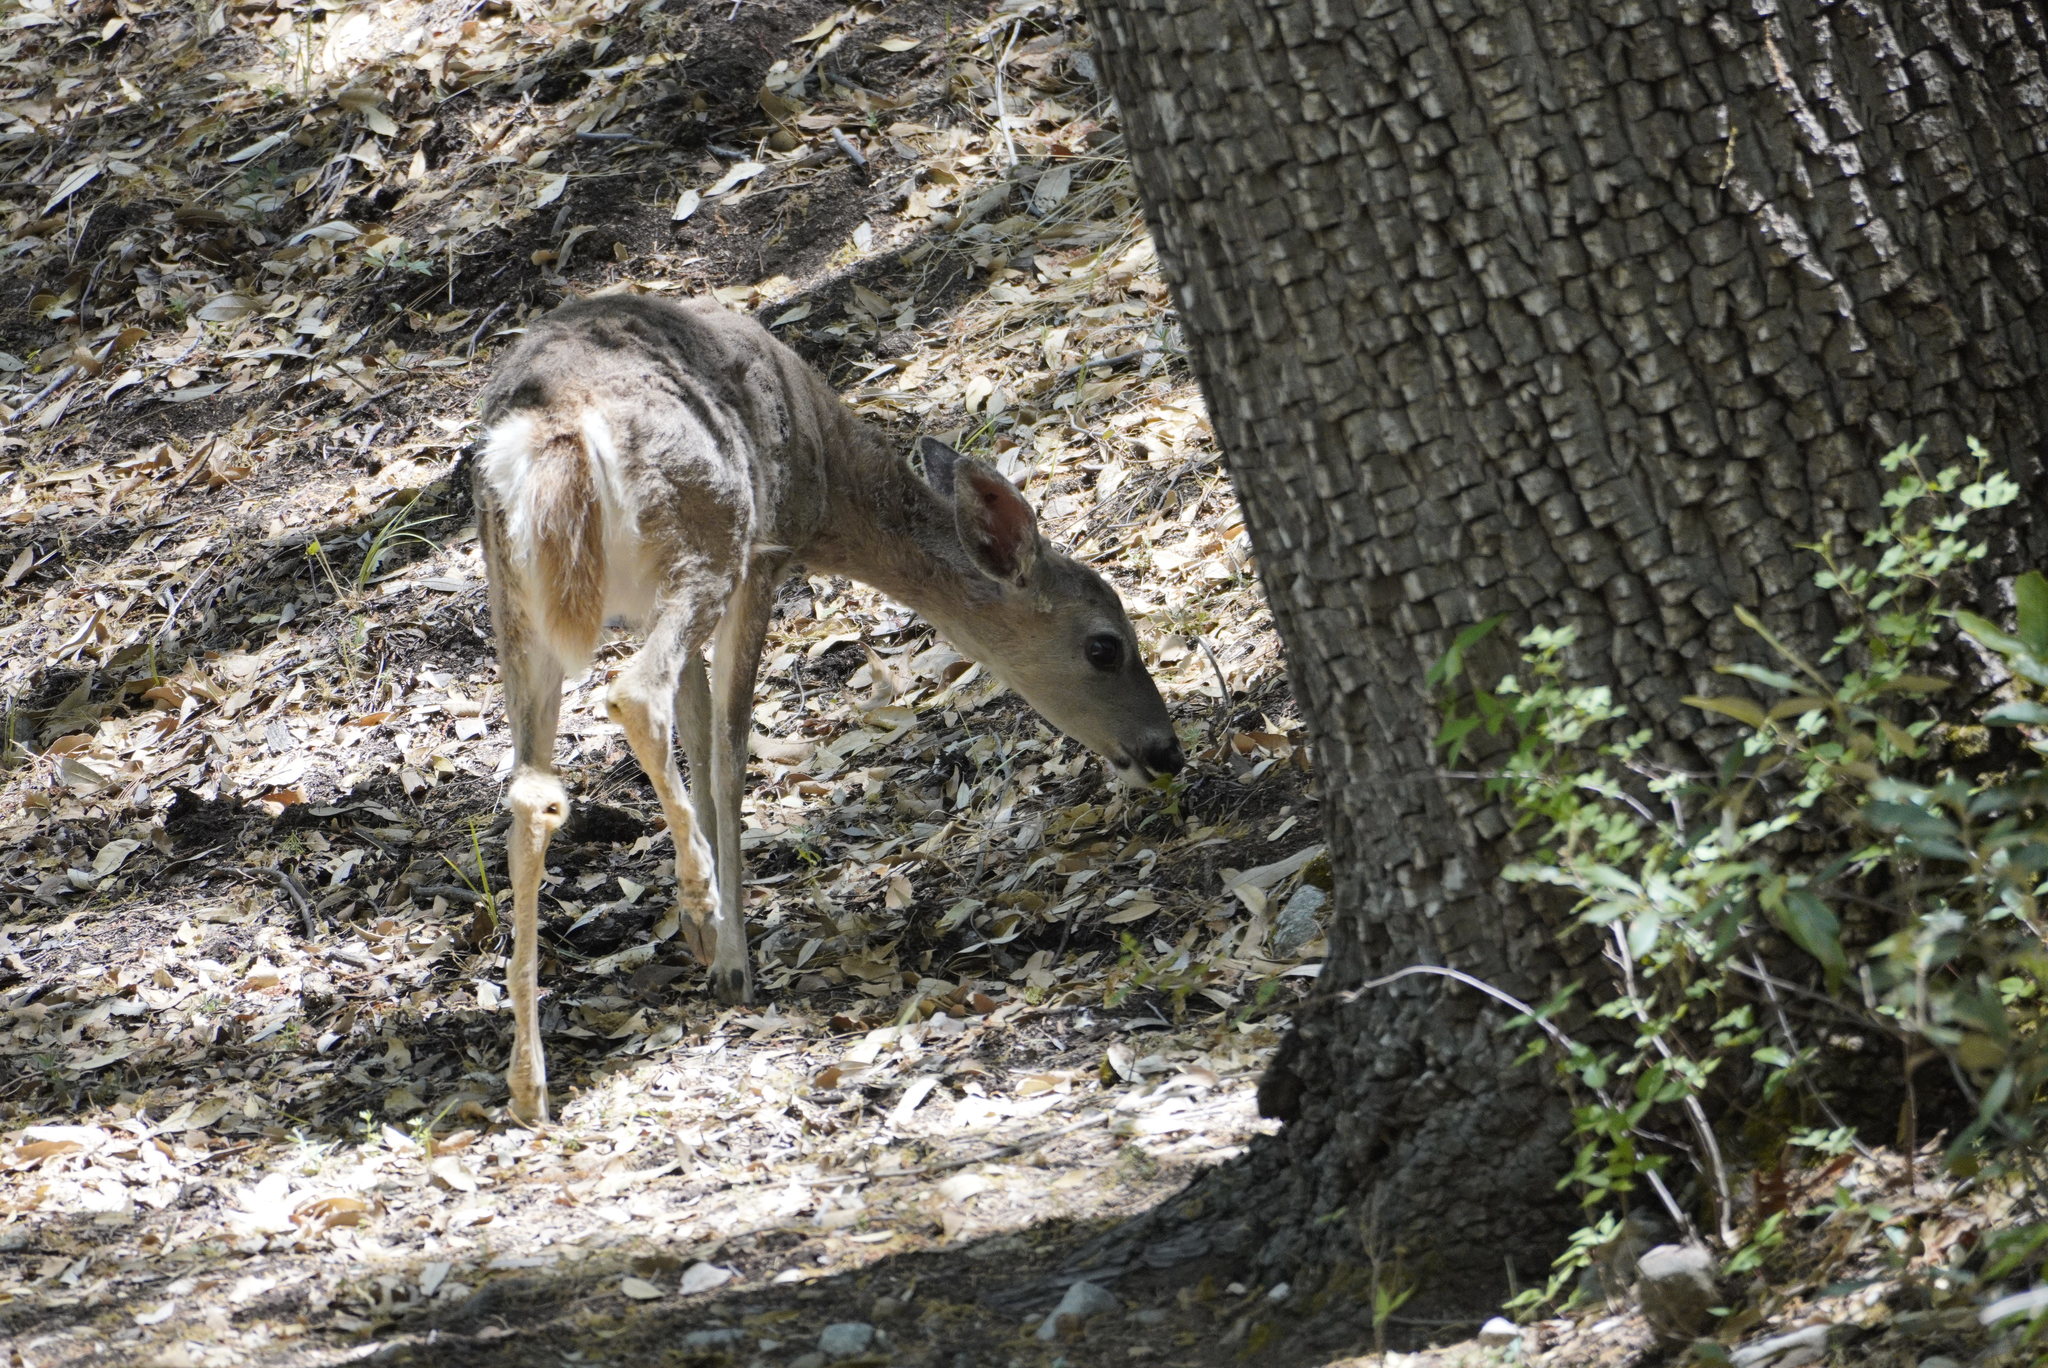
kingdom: Animalia
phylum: Chordata
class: Mammalia
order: Artiodactyla
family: Cervidae
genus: Odocoileus
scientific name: Odocoileus virginianus
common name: White-tailed deer
